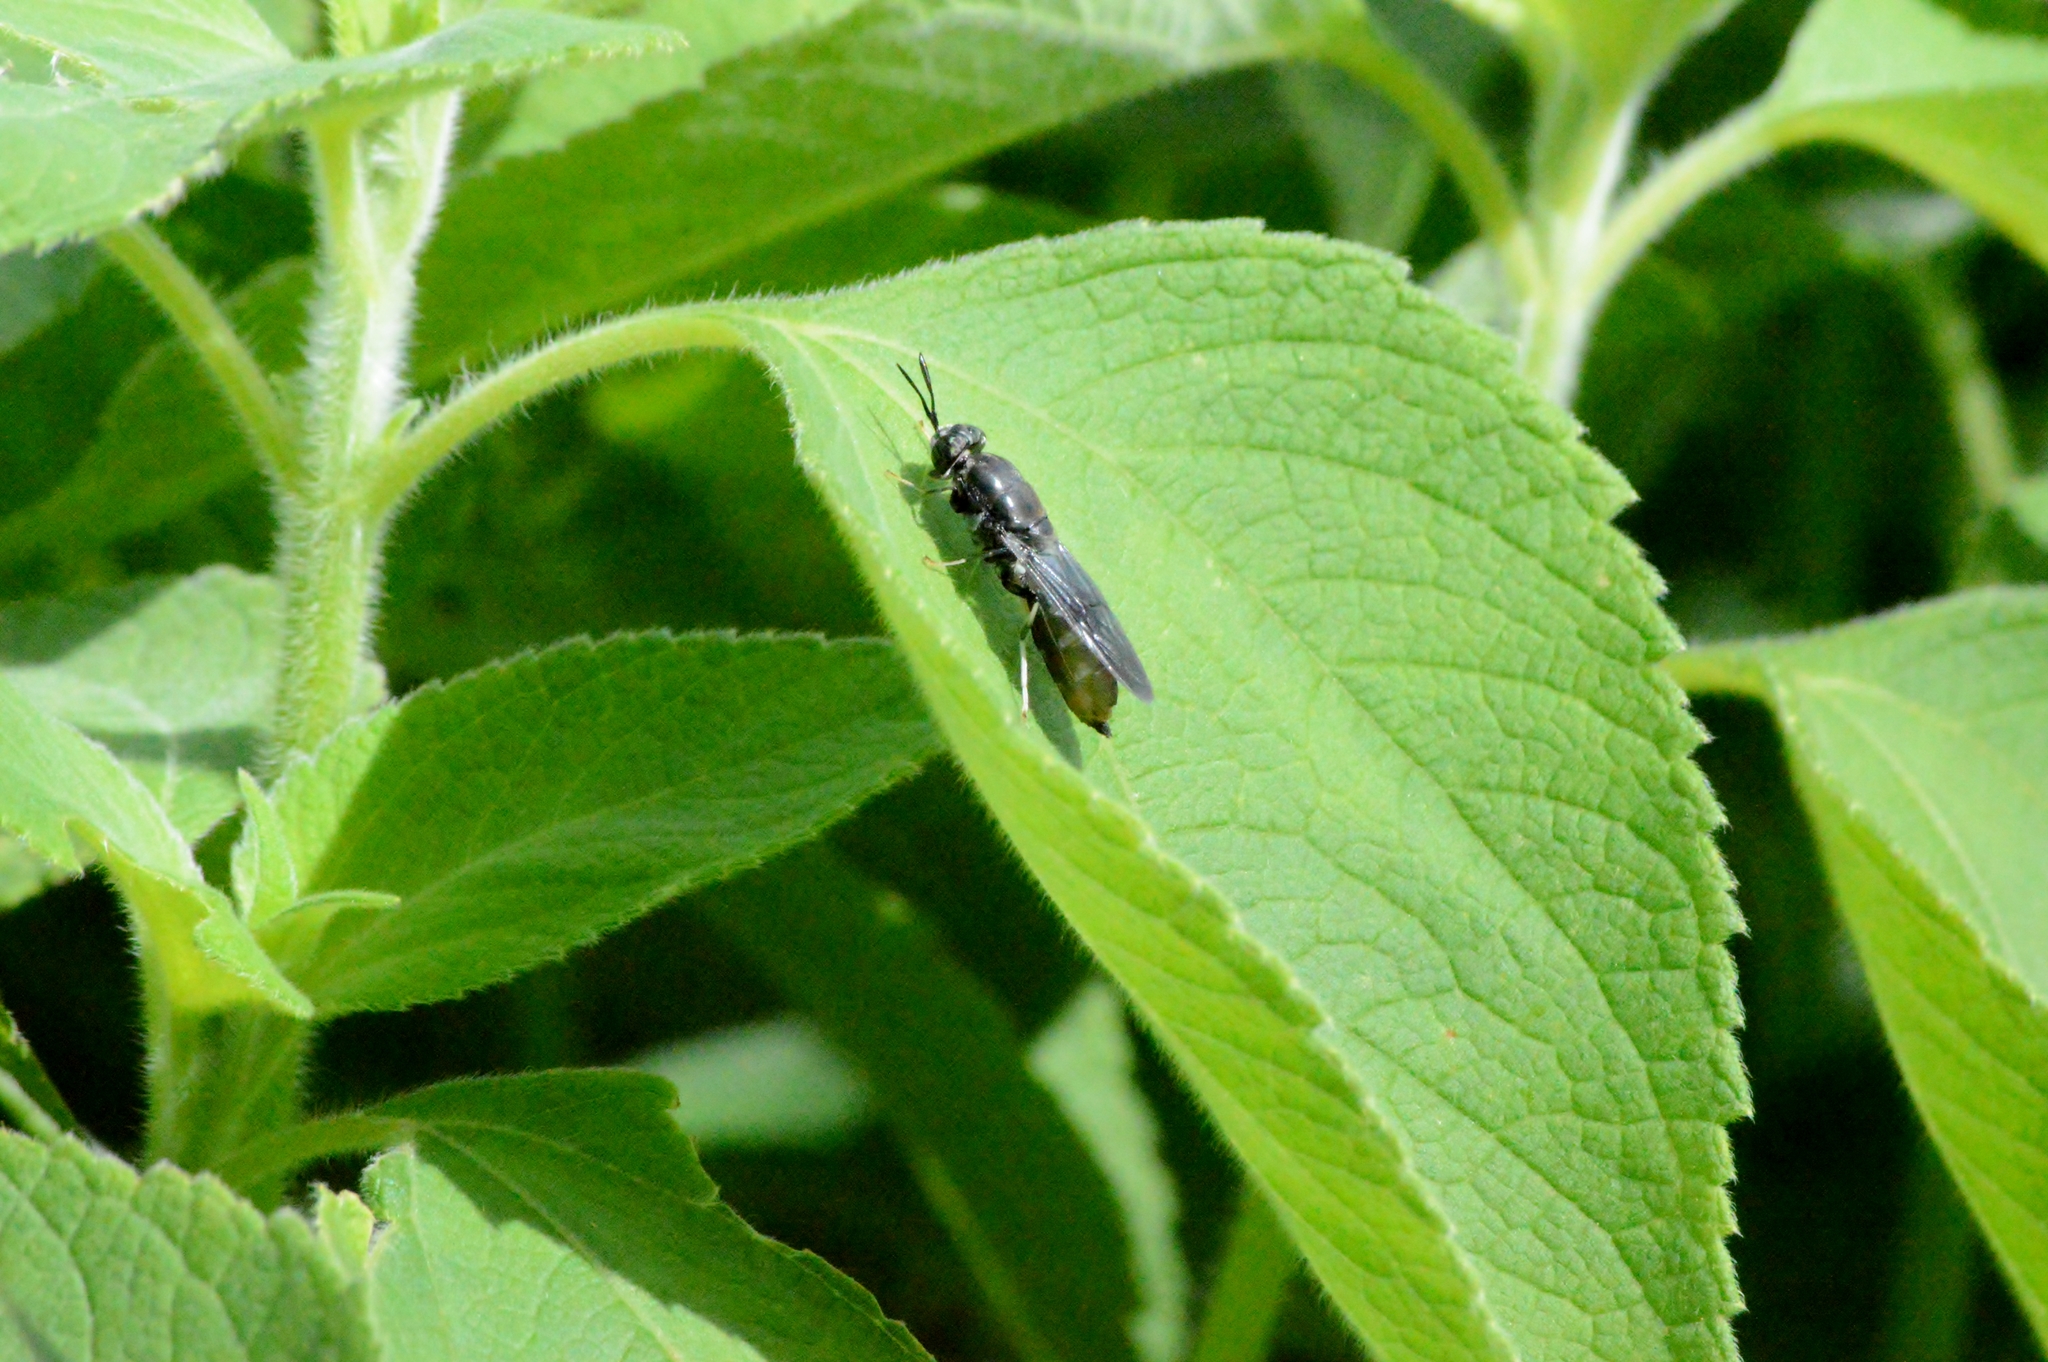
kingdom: Animalia
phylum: Arthropoda
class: Insecta
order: Diptera
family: Stratiomyidae
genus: Hermetia
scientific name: Hermetia illucens
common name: Black soldier fly
